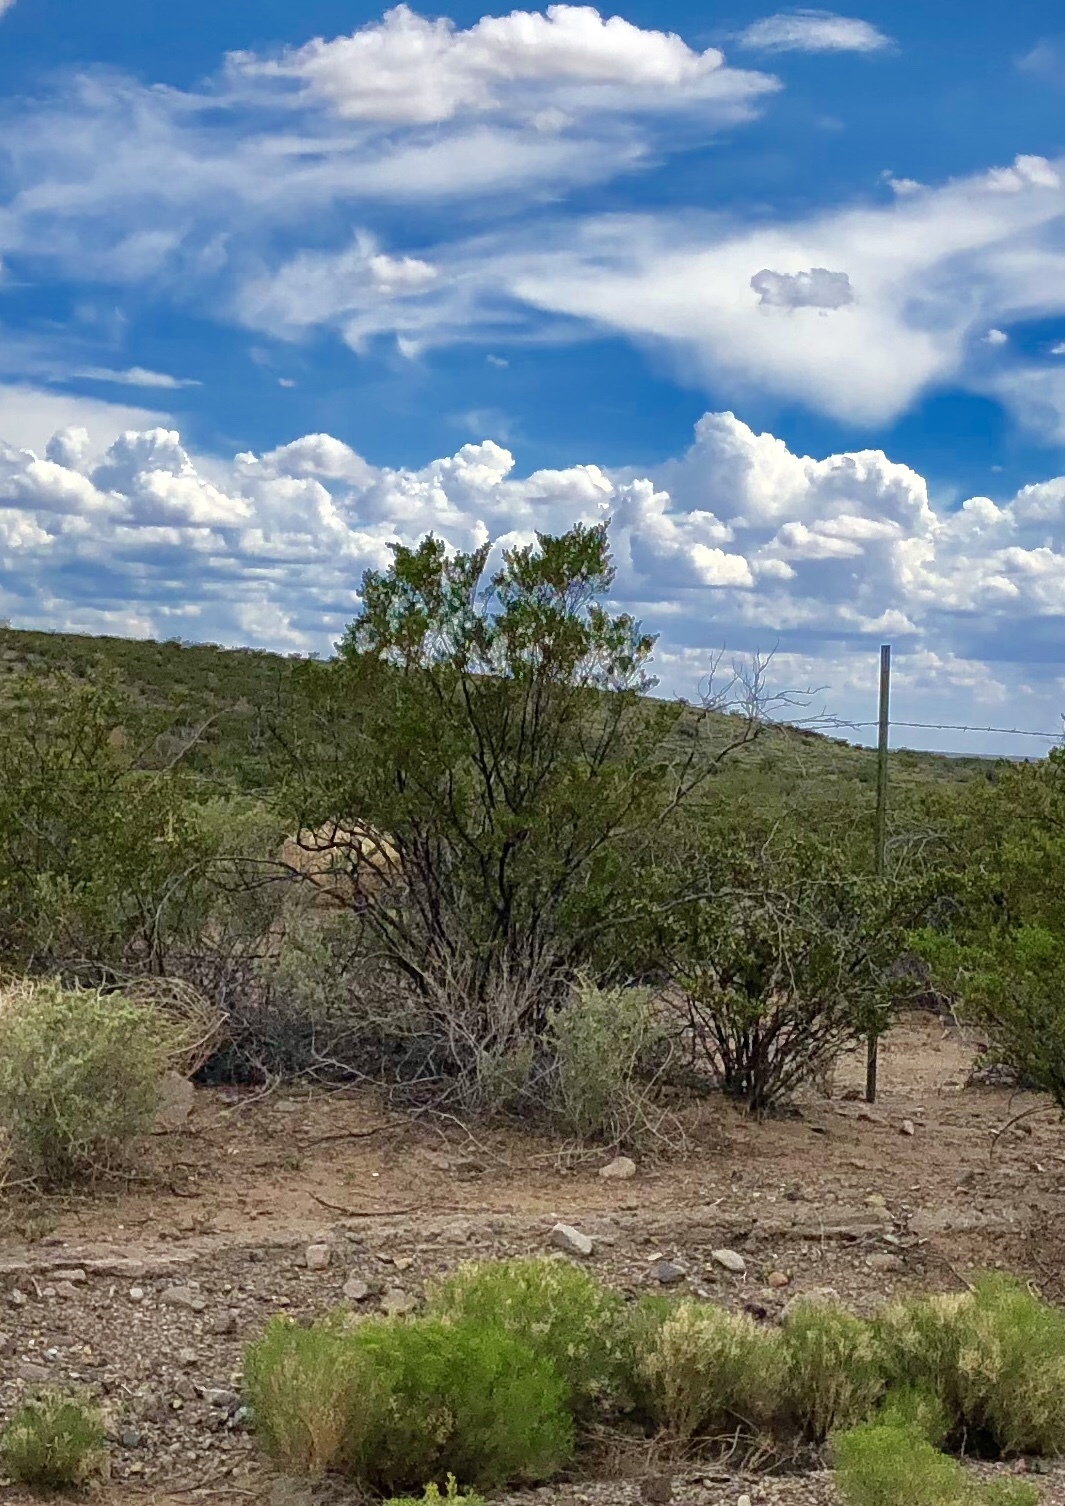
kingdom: Plantae
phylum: Tracheophyta
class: Magnoliopsida
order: Zygophyllales
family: Zygophyllaceae
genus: Larrea
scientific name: Larrea tridentata
